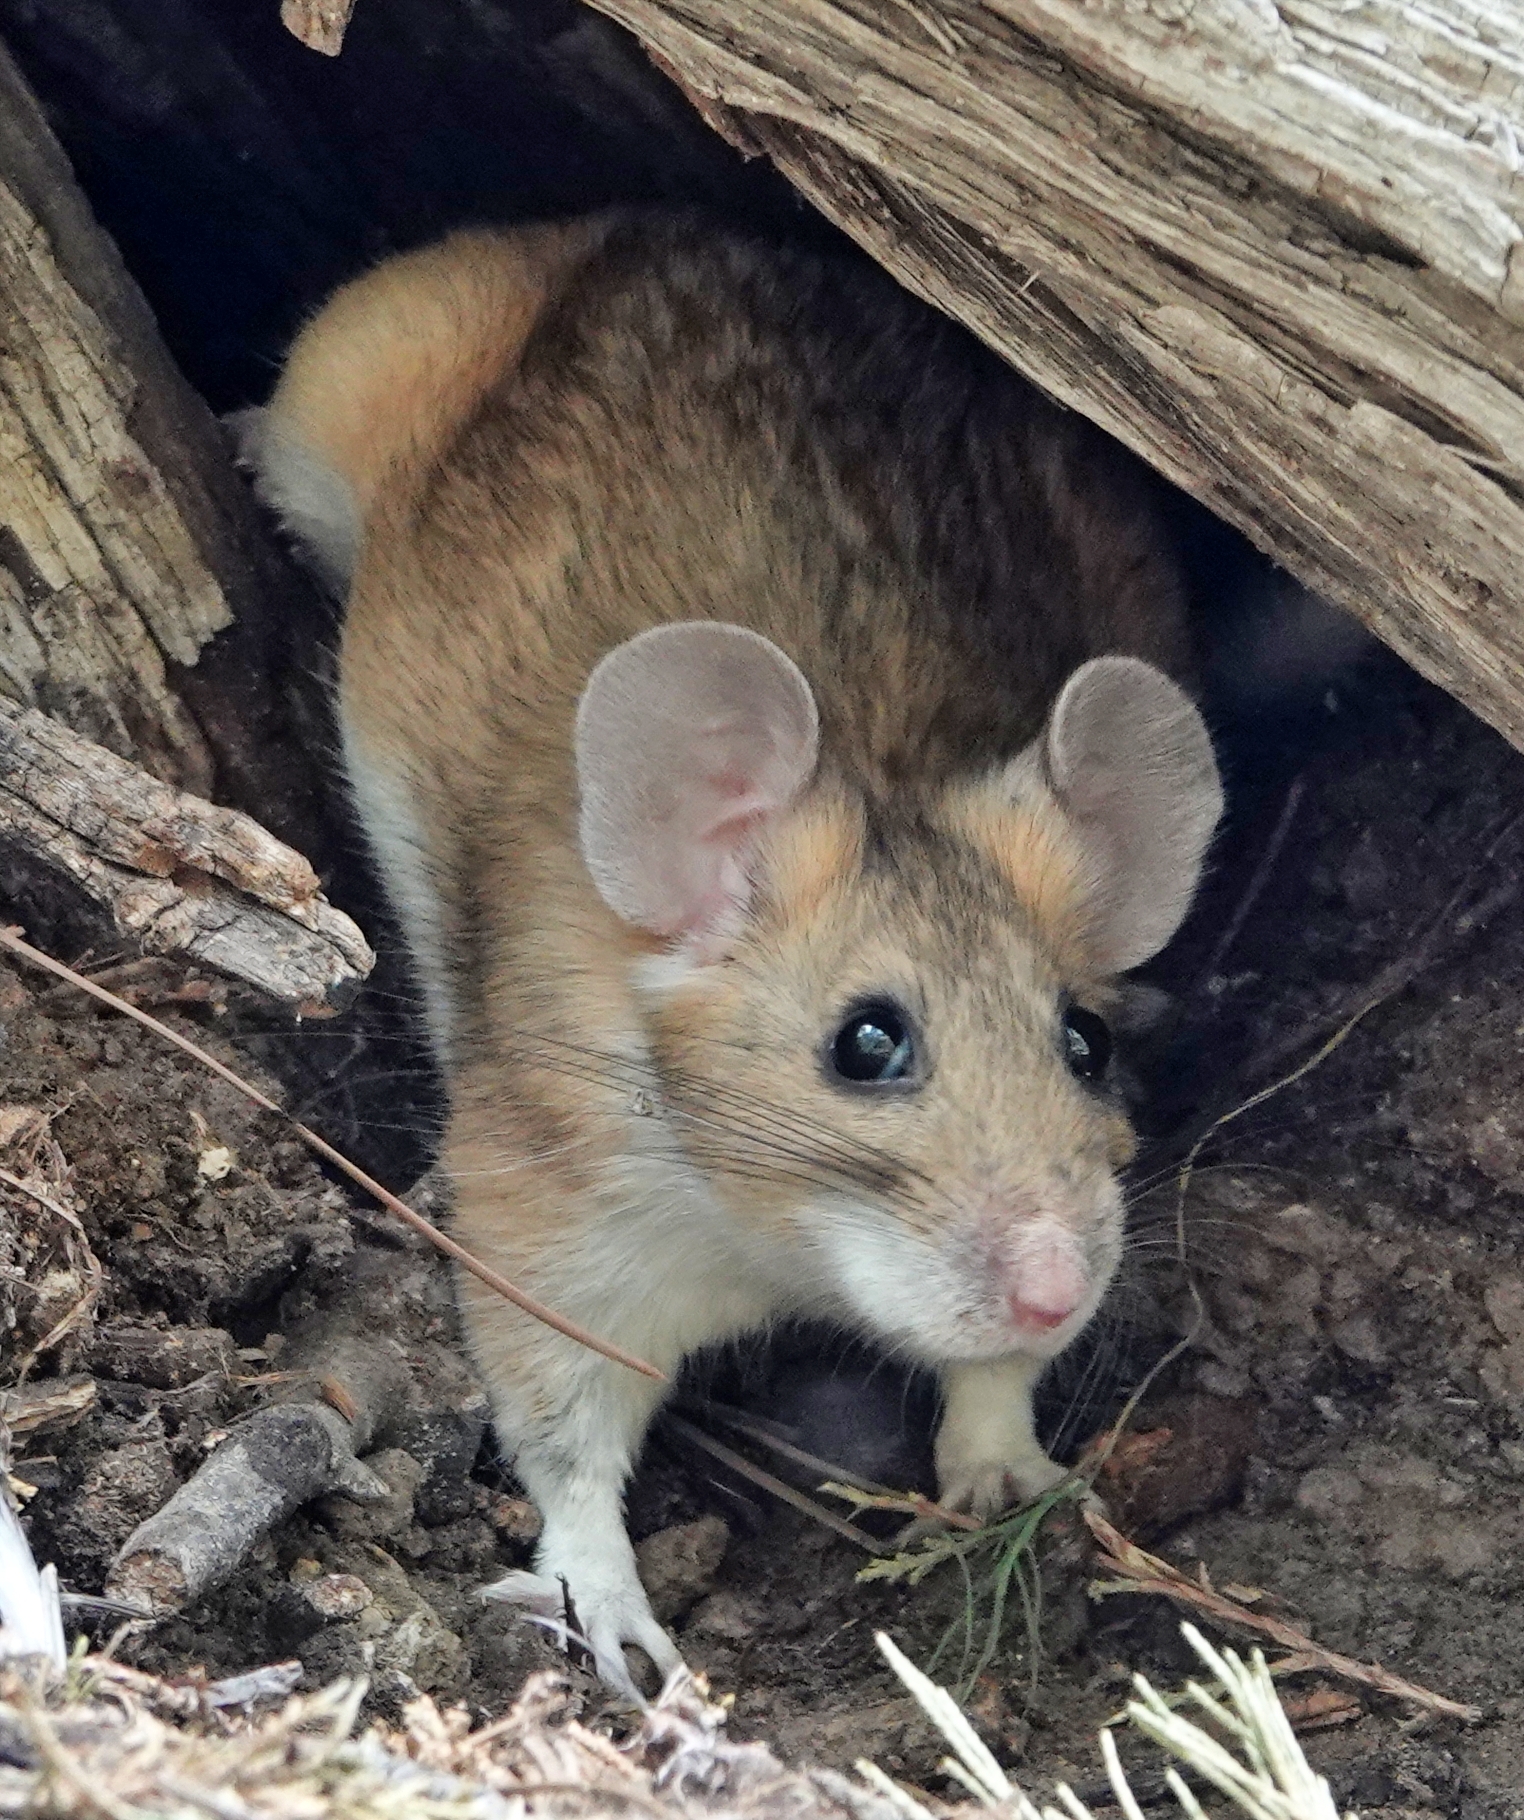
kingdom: Animalia
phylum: Chordata
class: Mammalia
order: Rodentia
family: Cricetidae
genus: Neotoma
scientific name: Neotoma cinerea
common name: Bushy-tailed woodrat
